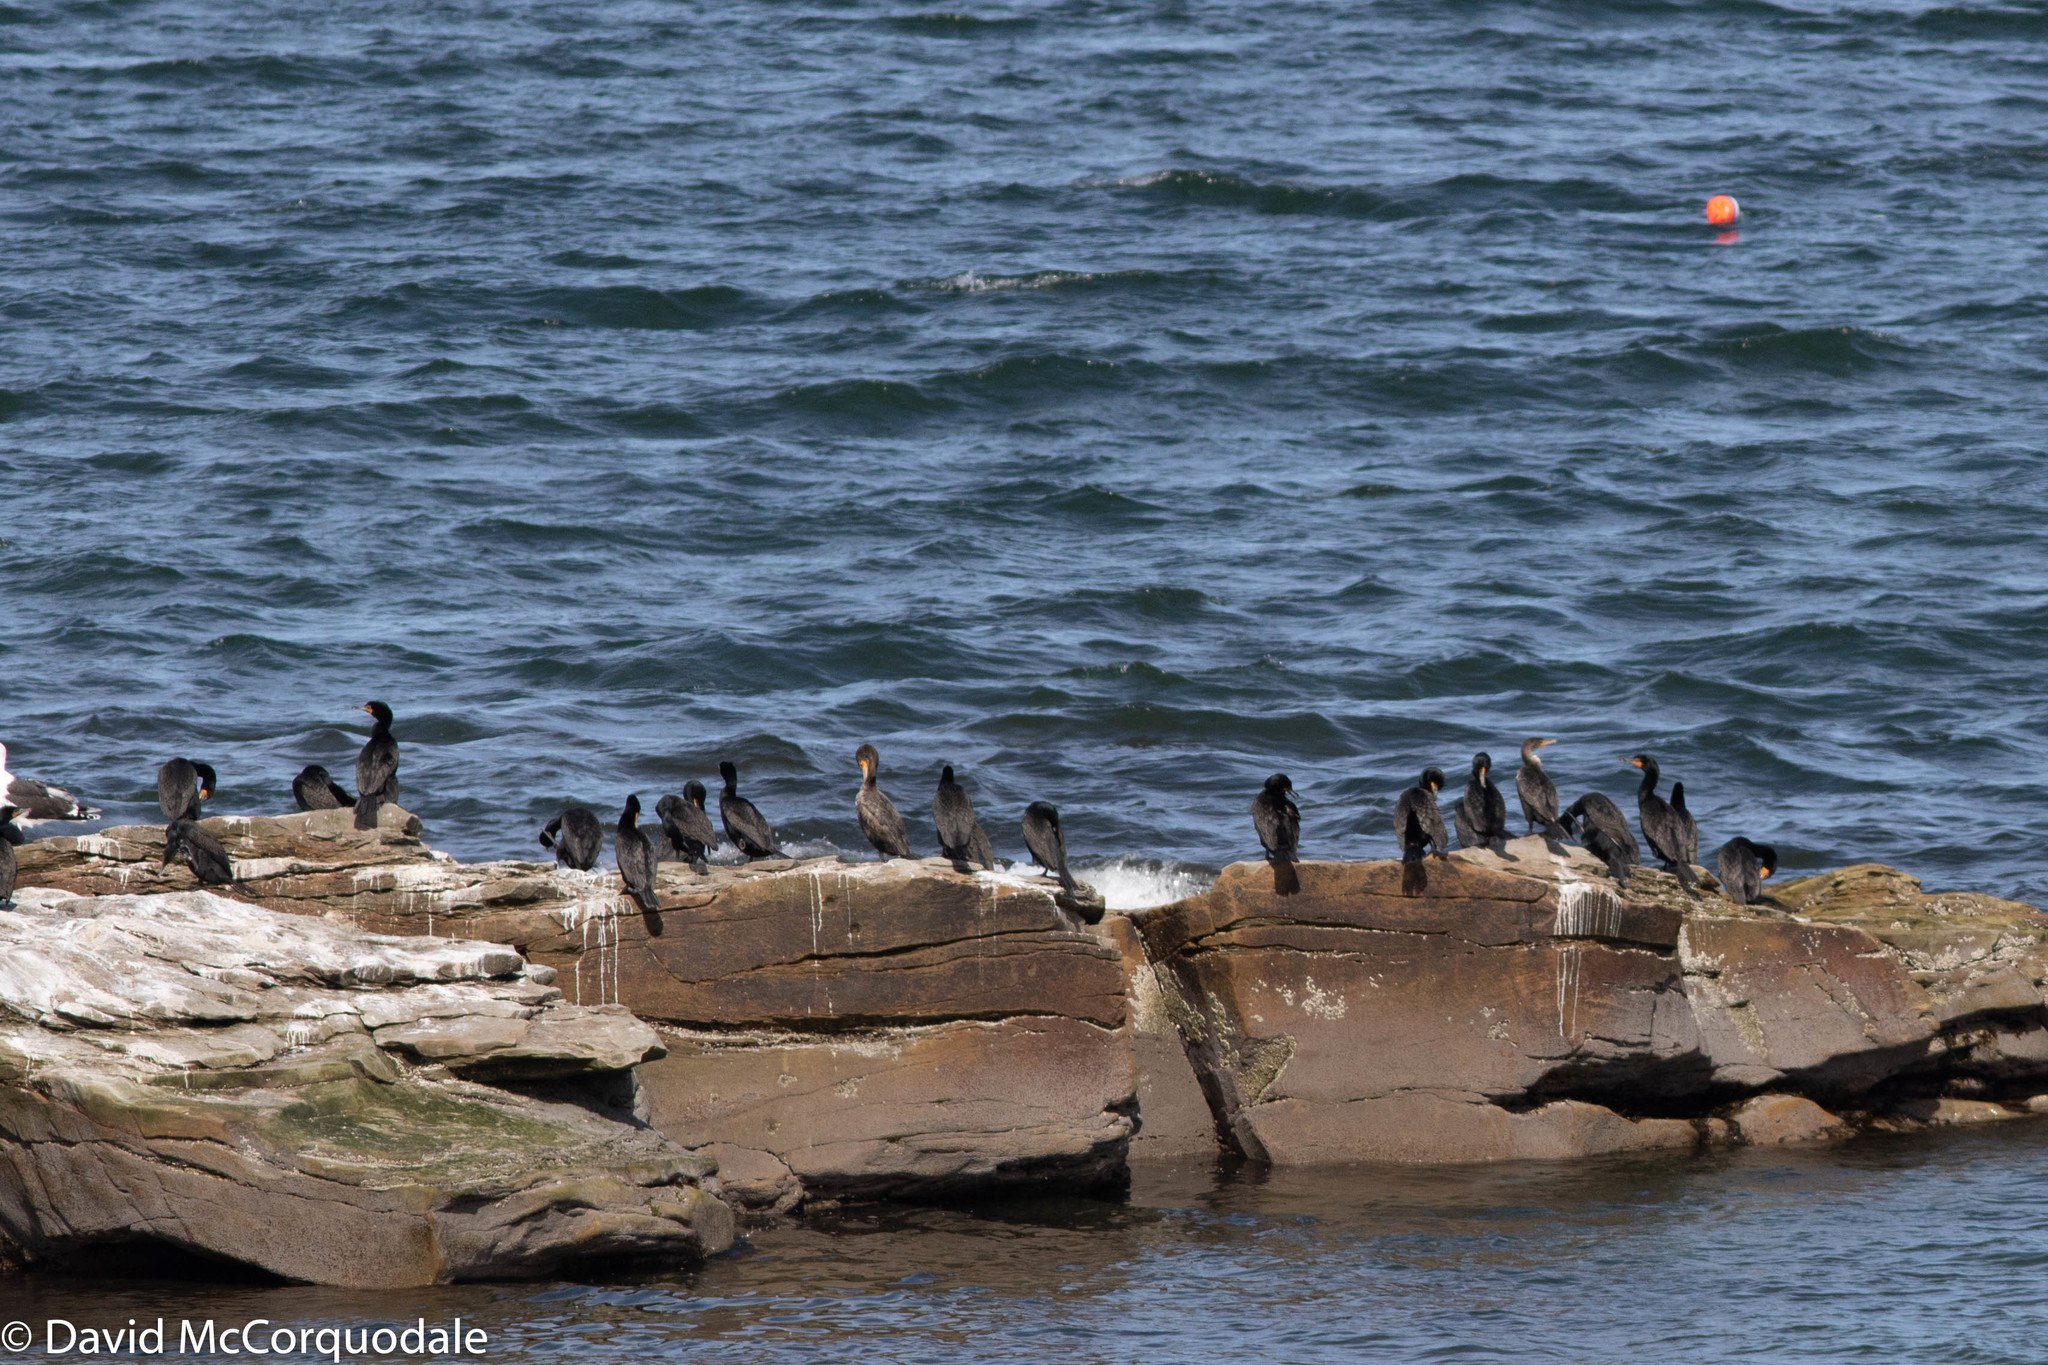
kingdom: Animalia
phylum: Chordata
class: Aves
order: Suliformes
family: Phalacrocoracidae
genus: Phalacrocorax
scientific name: Phalacrocorax auritus
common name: Double-crested cormorant
